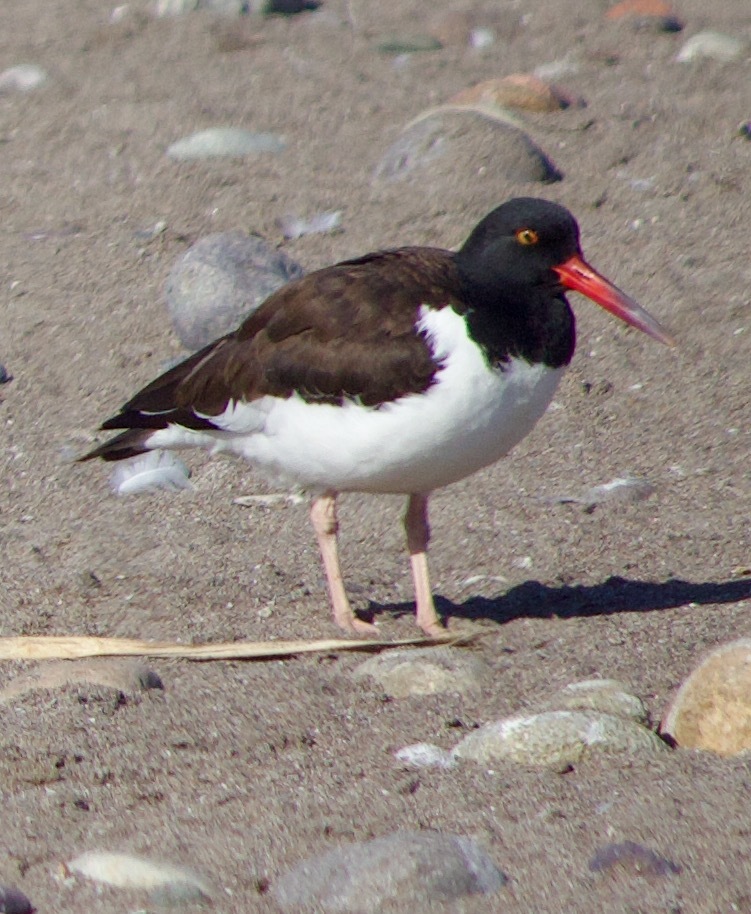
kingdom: Animalia
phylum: Chordata
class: Aves
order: Charadriiformes
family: Haematopodidae
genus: Haematopus
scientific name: Haematopus palliatus
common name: American oystercatcher
